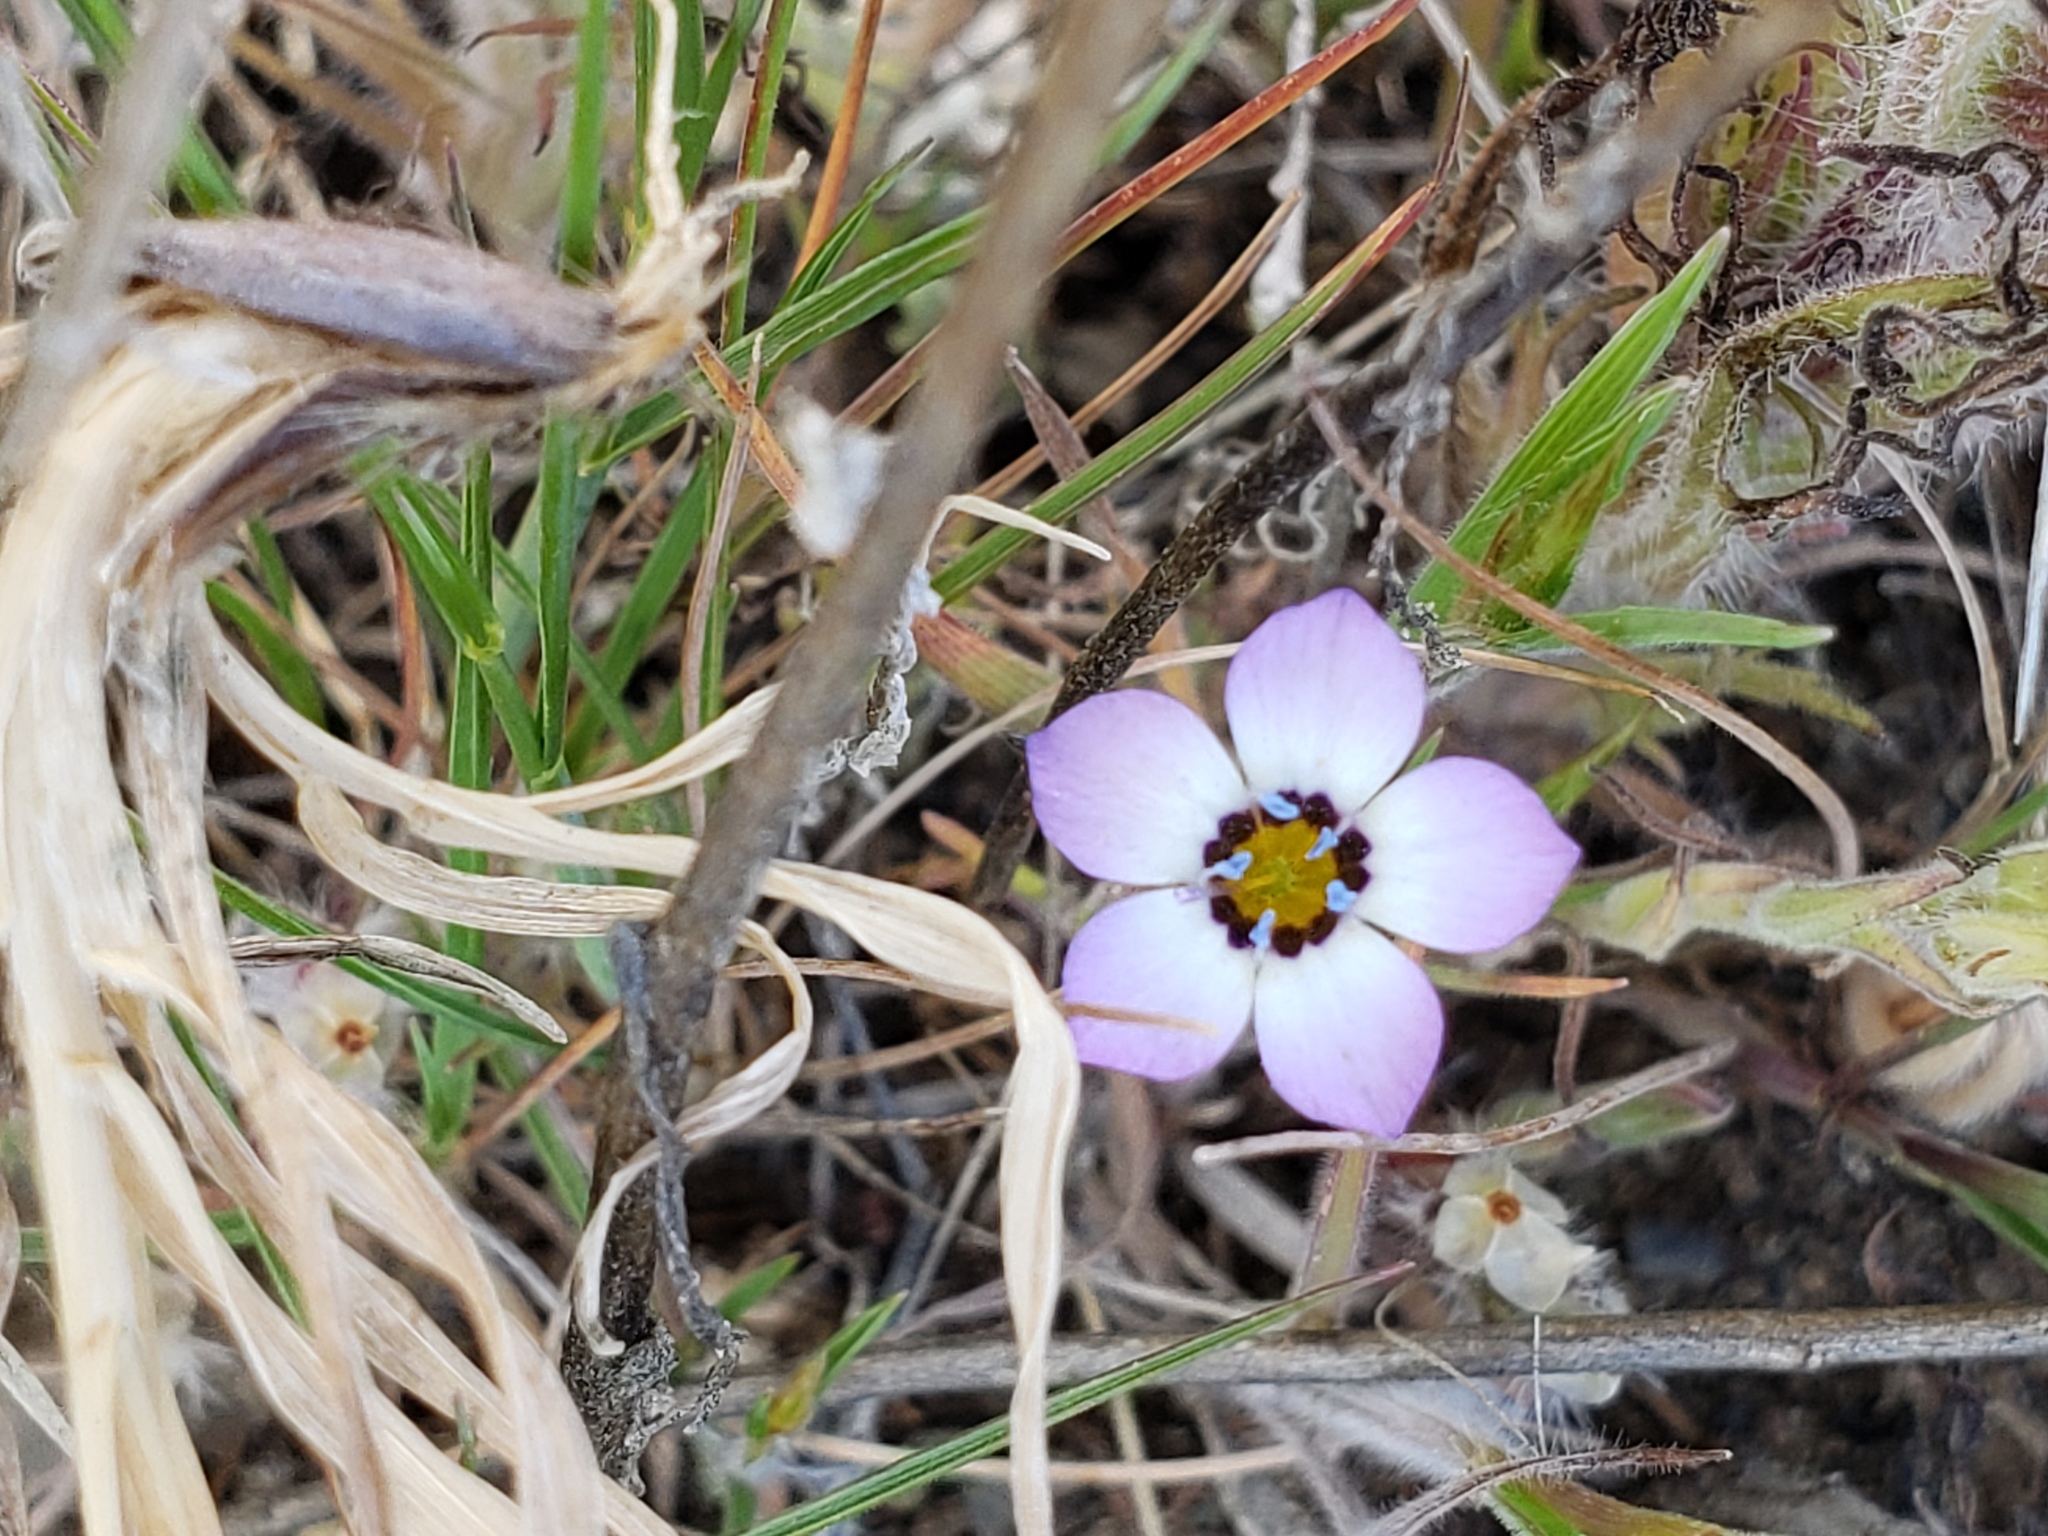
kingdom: Plantae
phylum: Tracheophyta
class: Magnoliopsida
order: Ericales
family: Polemoniaceae
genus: Gilia
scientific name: Gilia tricolor
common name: Bird's-eyes
